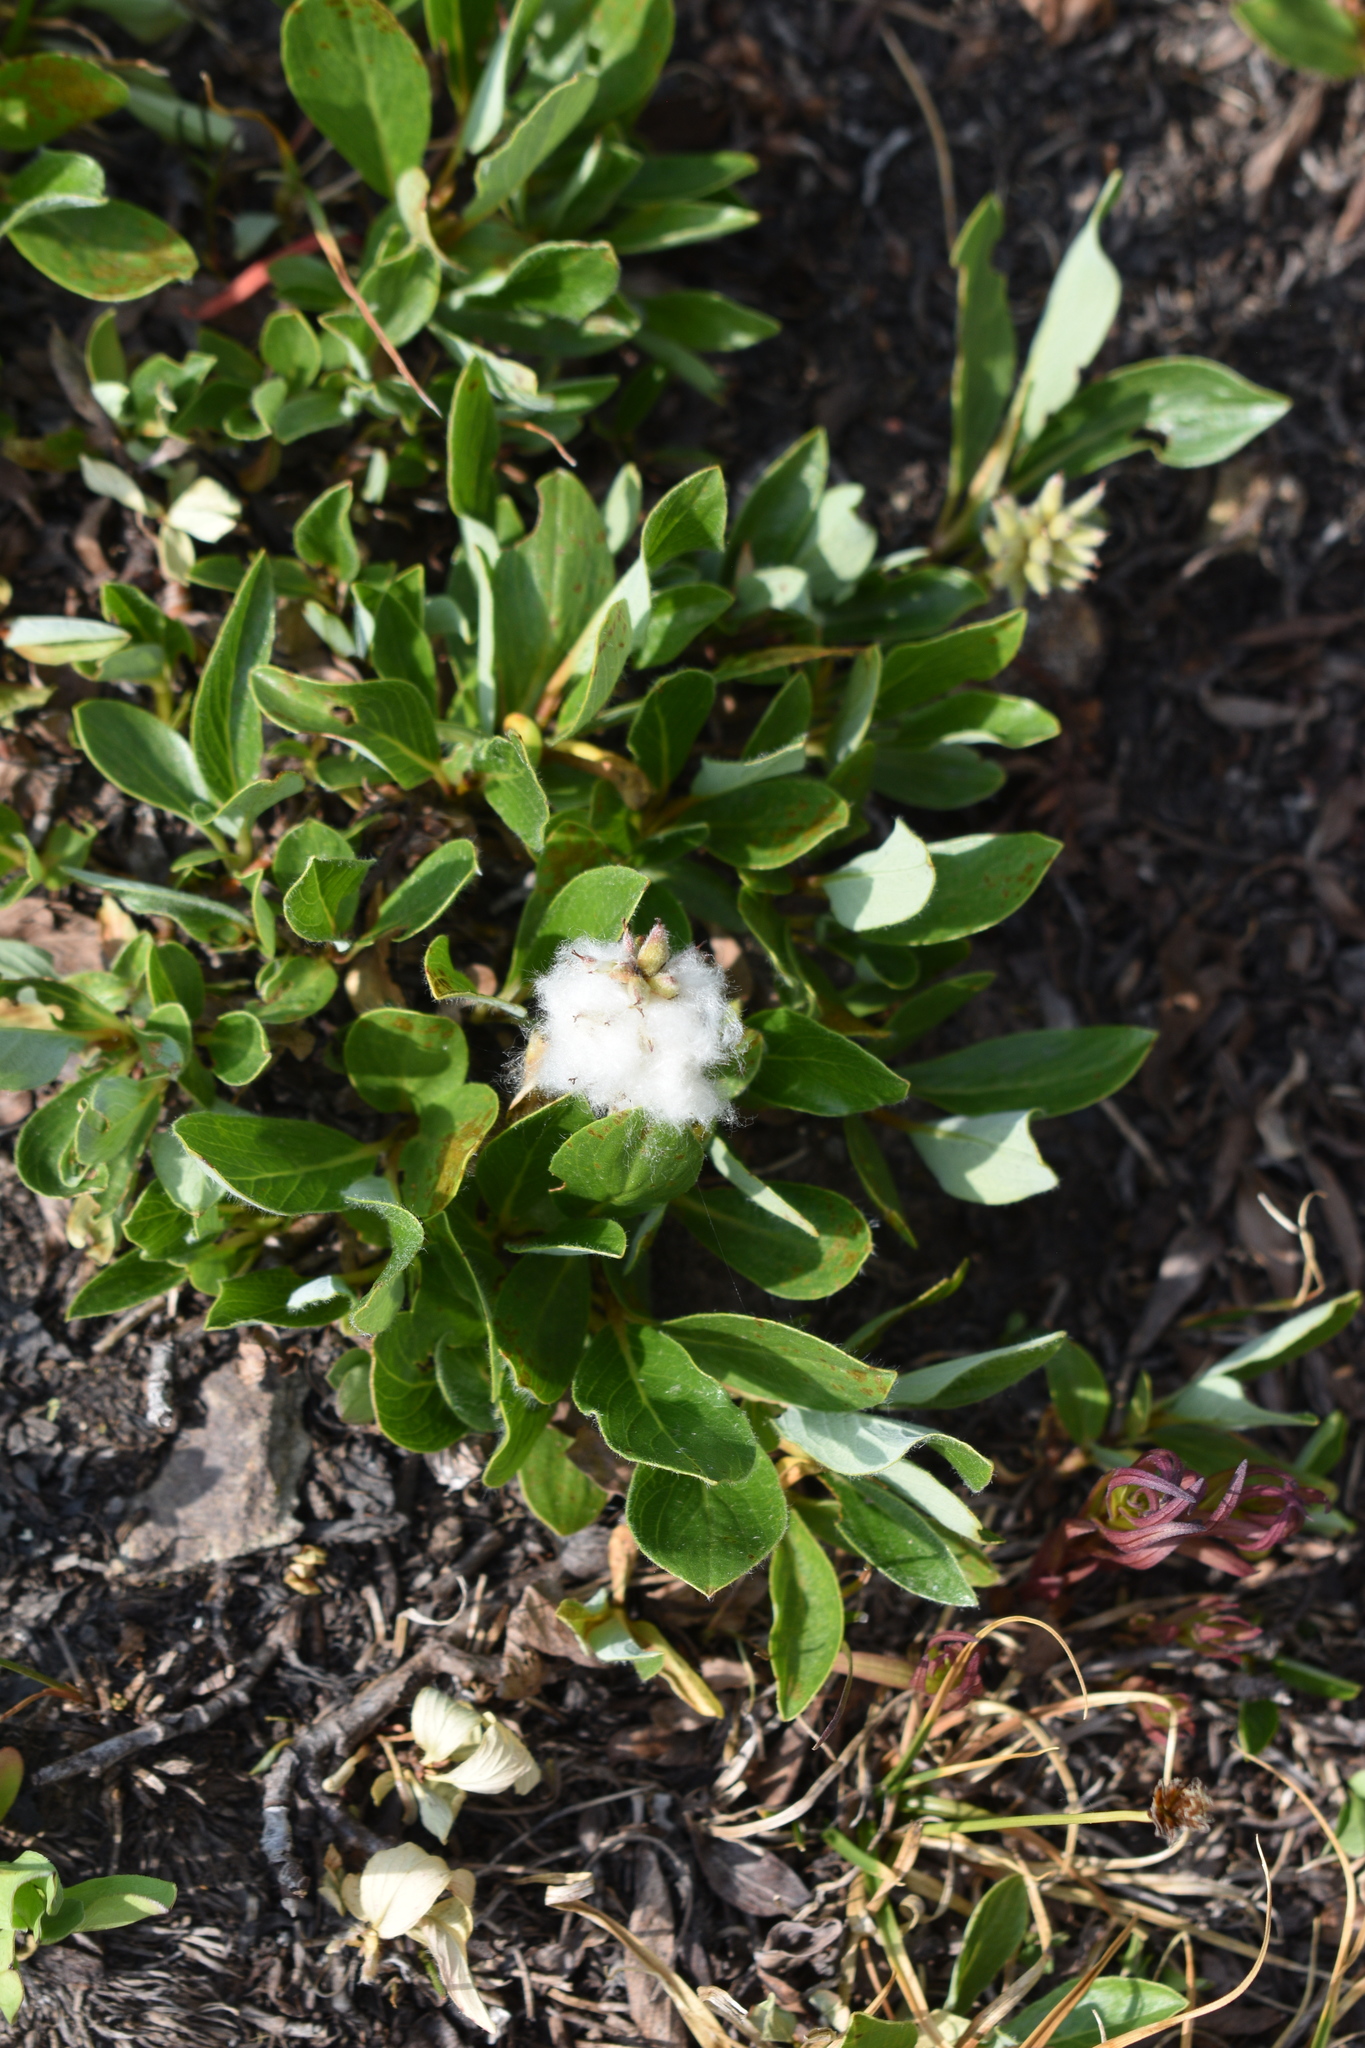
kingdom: Plantae
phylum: Tracheophyta
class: Magnoliopsida
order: Malpighiales
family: Salicaceae
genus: Salix
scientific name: Salix petrophila
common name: Rocky mountain willow
